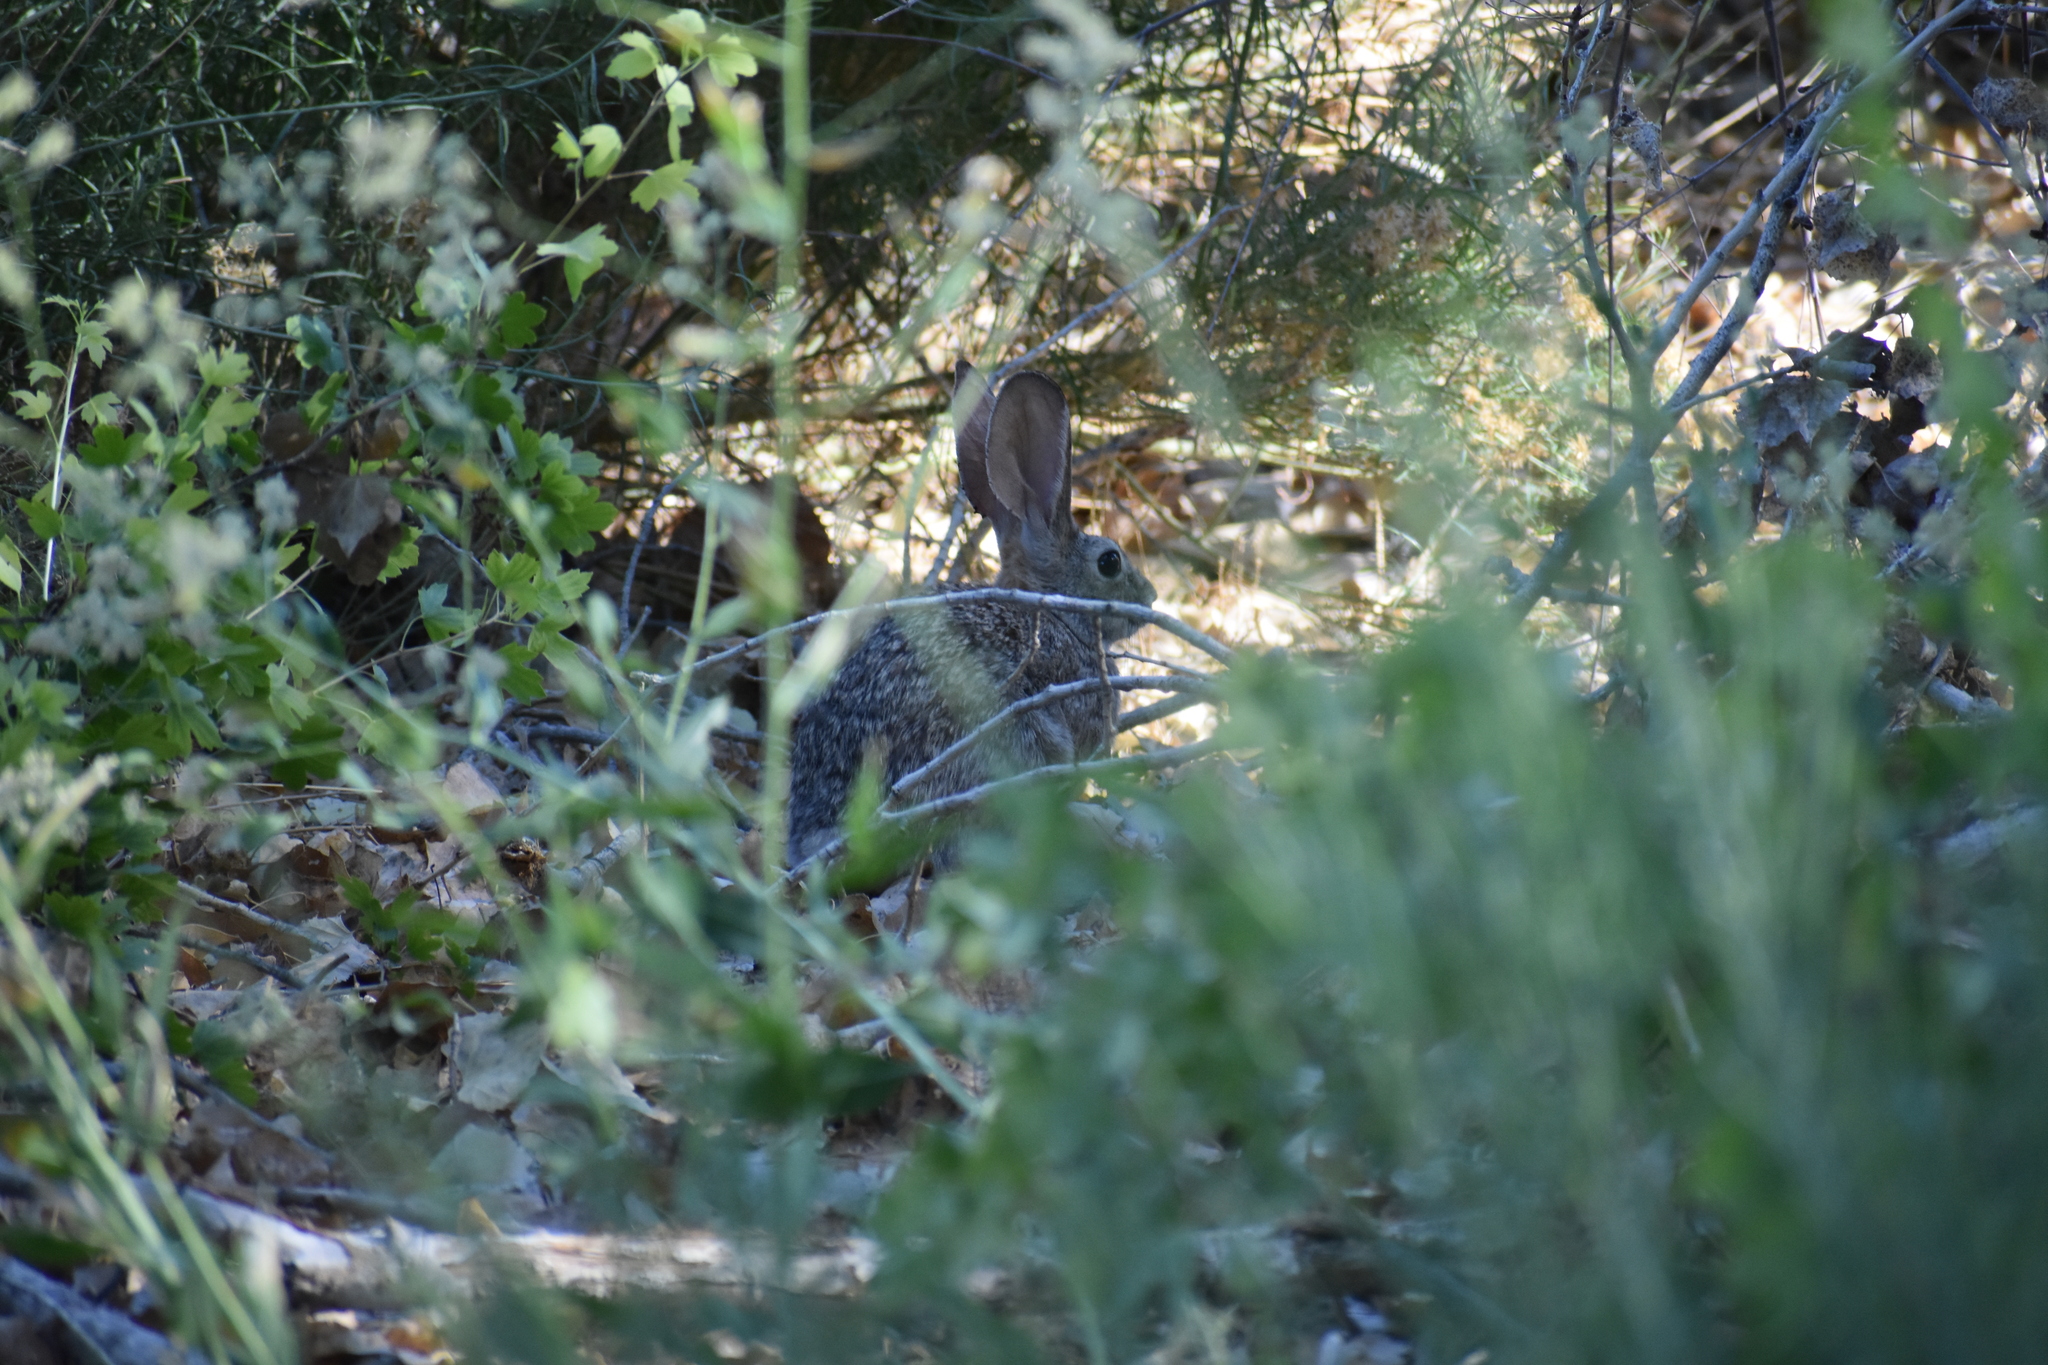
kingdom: Animalia
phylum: Chordata
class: Mammalia
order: Lagomorpha
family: Leporidae
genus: Sylvilagus
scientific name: Sylvilagus audubonii
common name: Desert cottontail
